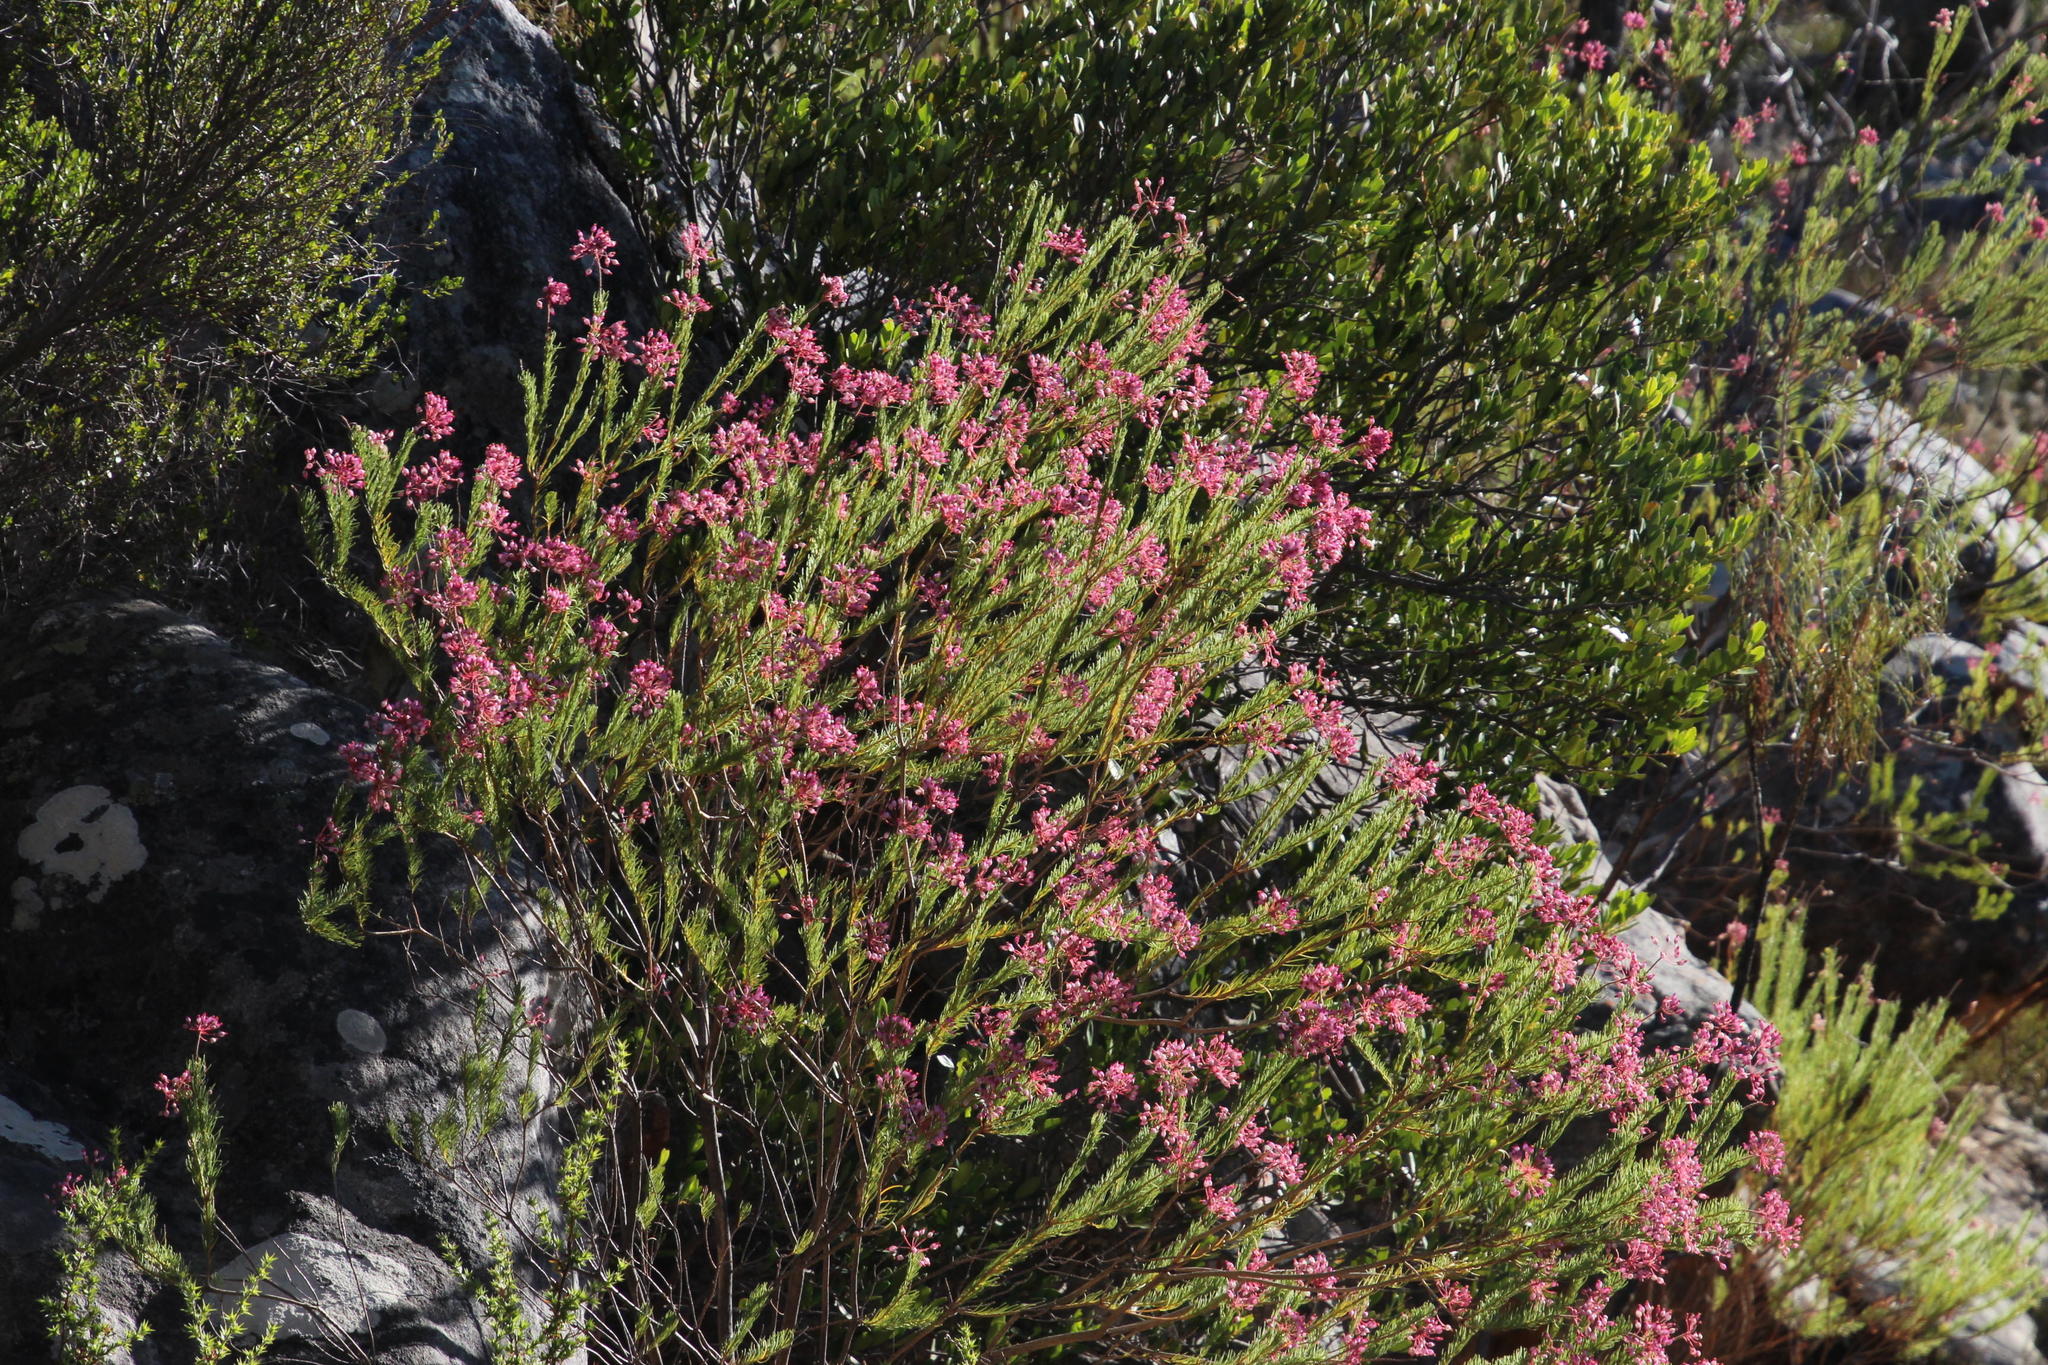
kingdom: Plantae
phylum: Tracheophyta
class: Magnoliopsida
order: Ericales
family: Ericaceae
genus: Erica
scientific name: Erica inflata
